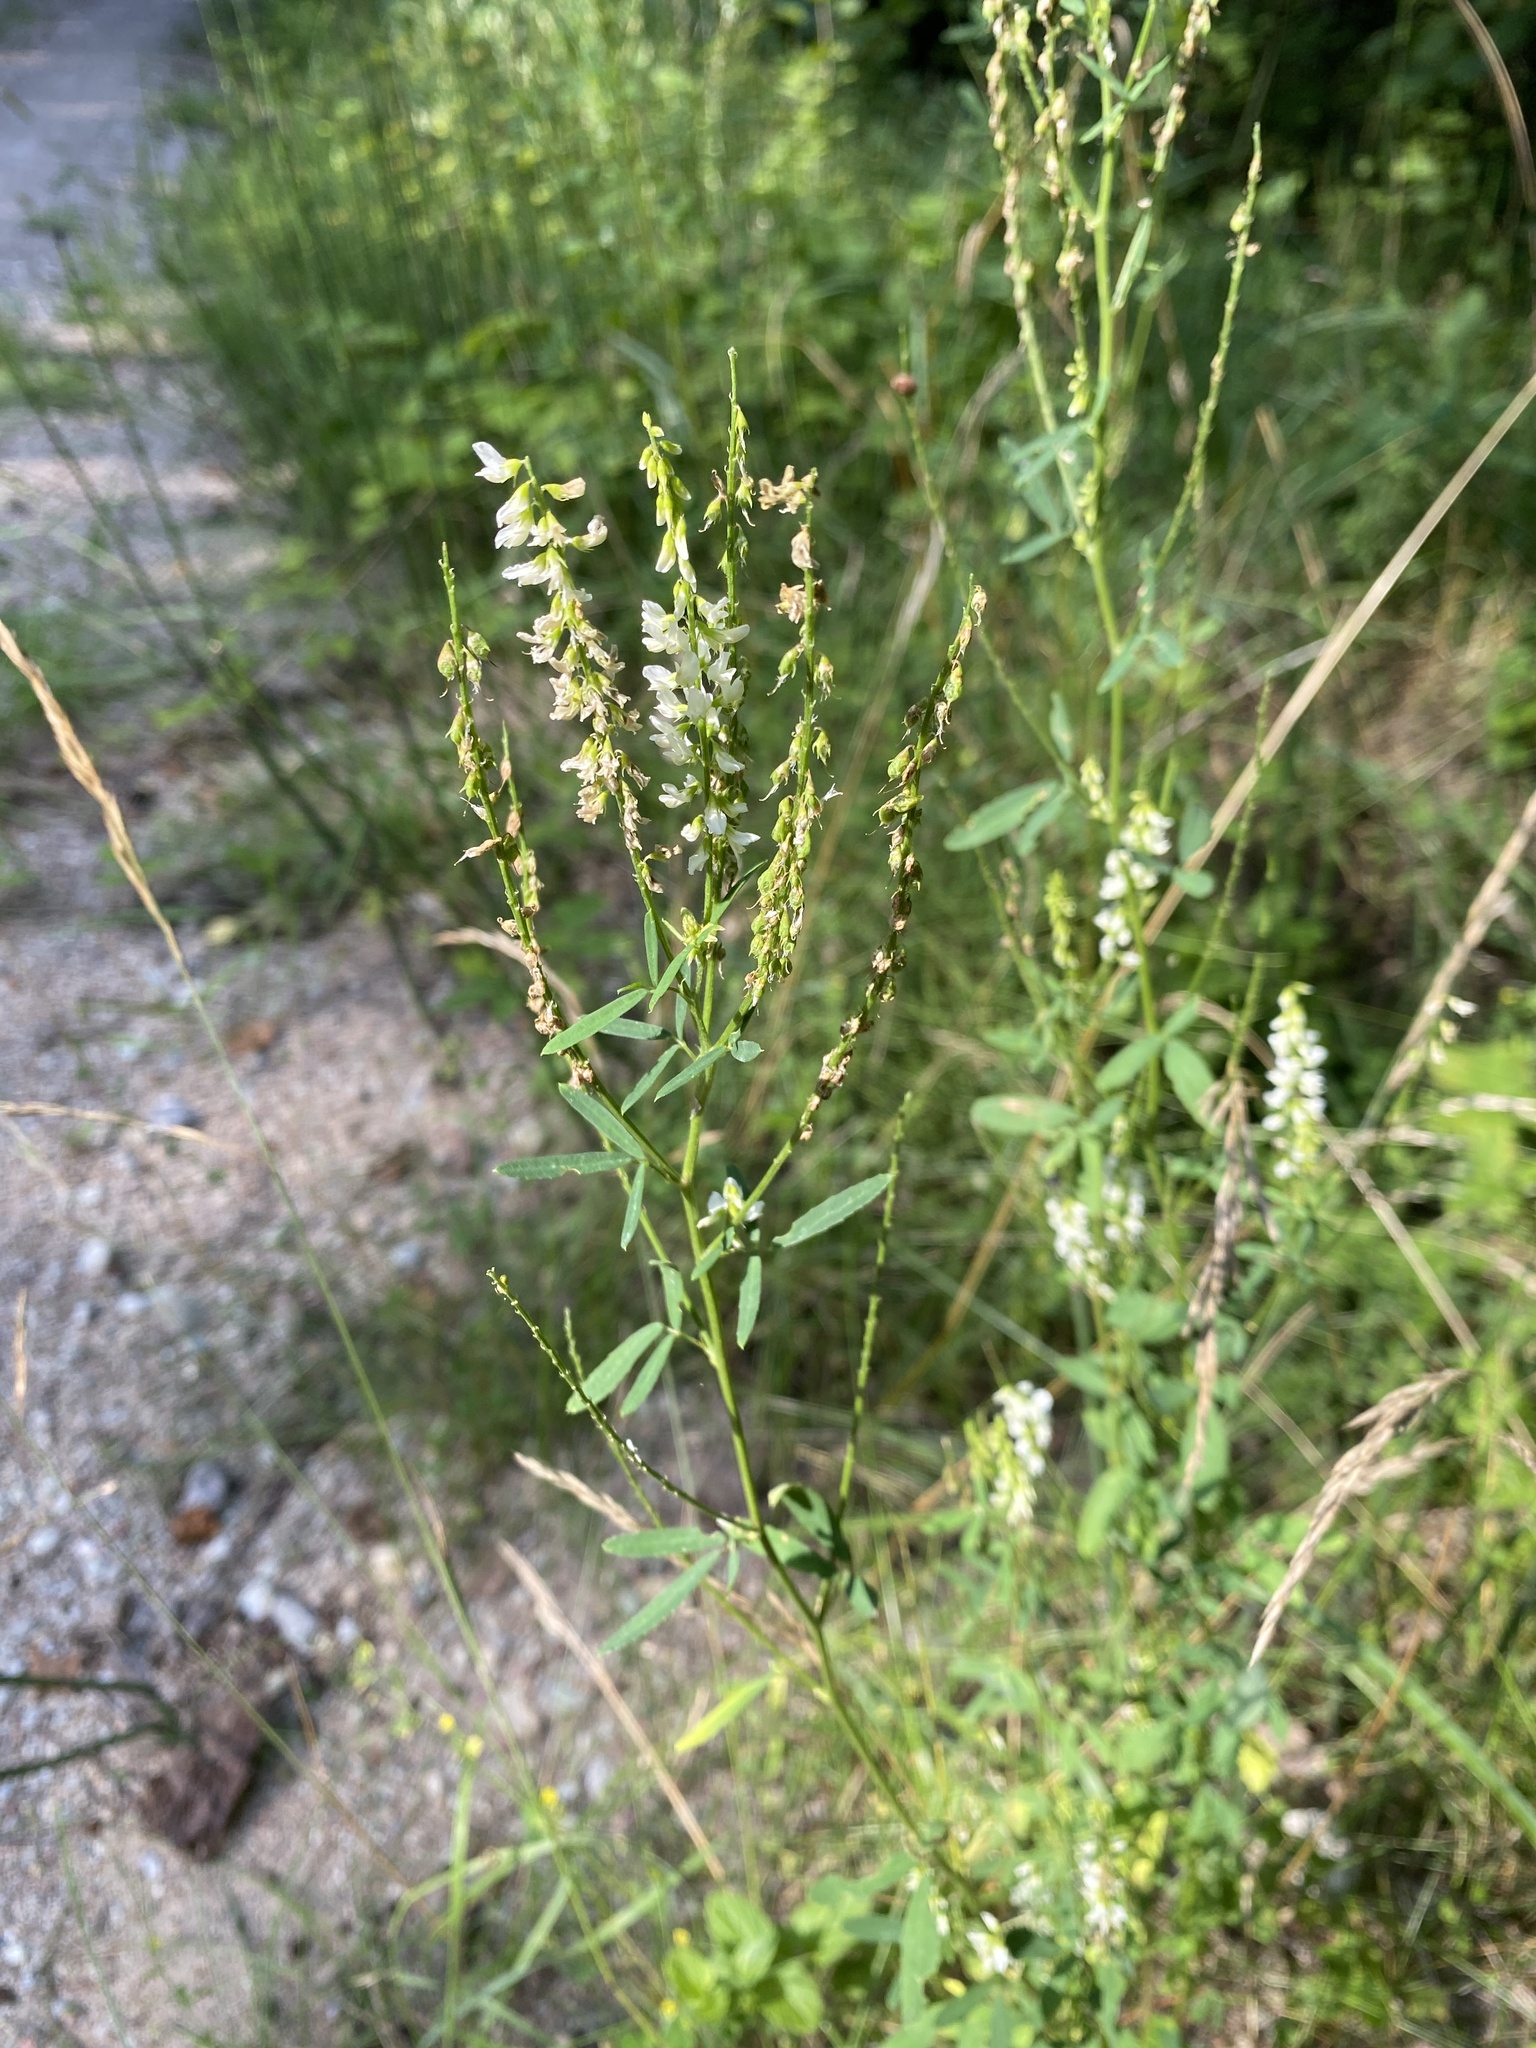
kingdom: Plantae
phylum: Tracheophyta
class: Magnoliopsida
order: Fabales
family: Fabaceae
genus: Melilotus
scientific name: Melilotus albus
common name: White melilot
